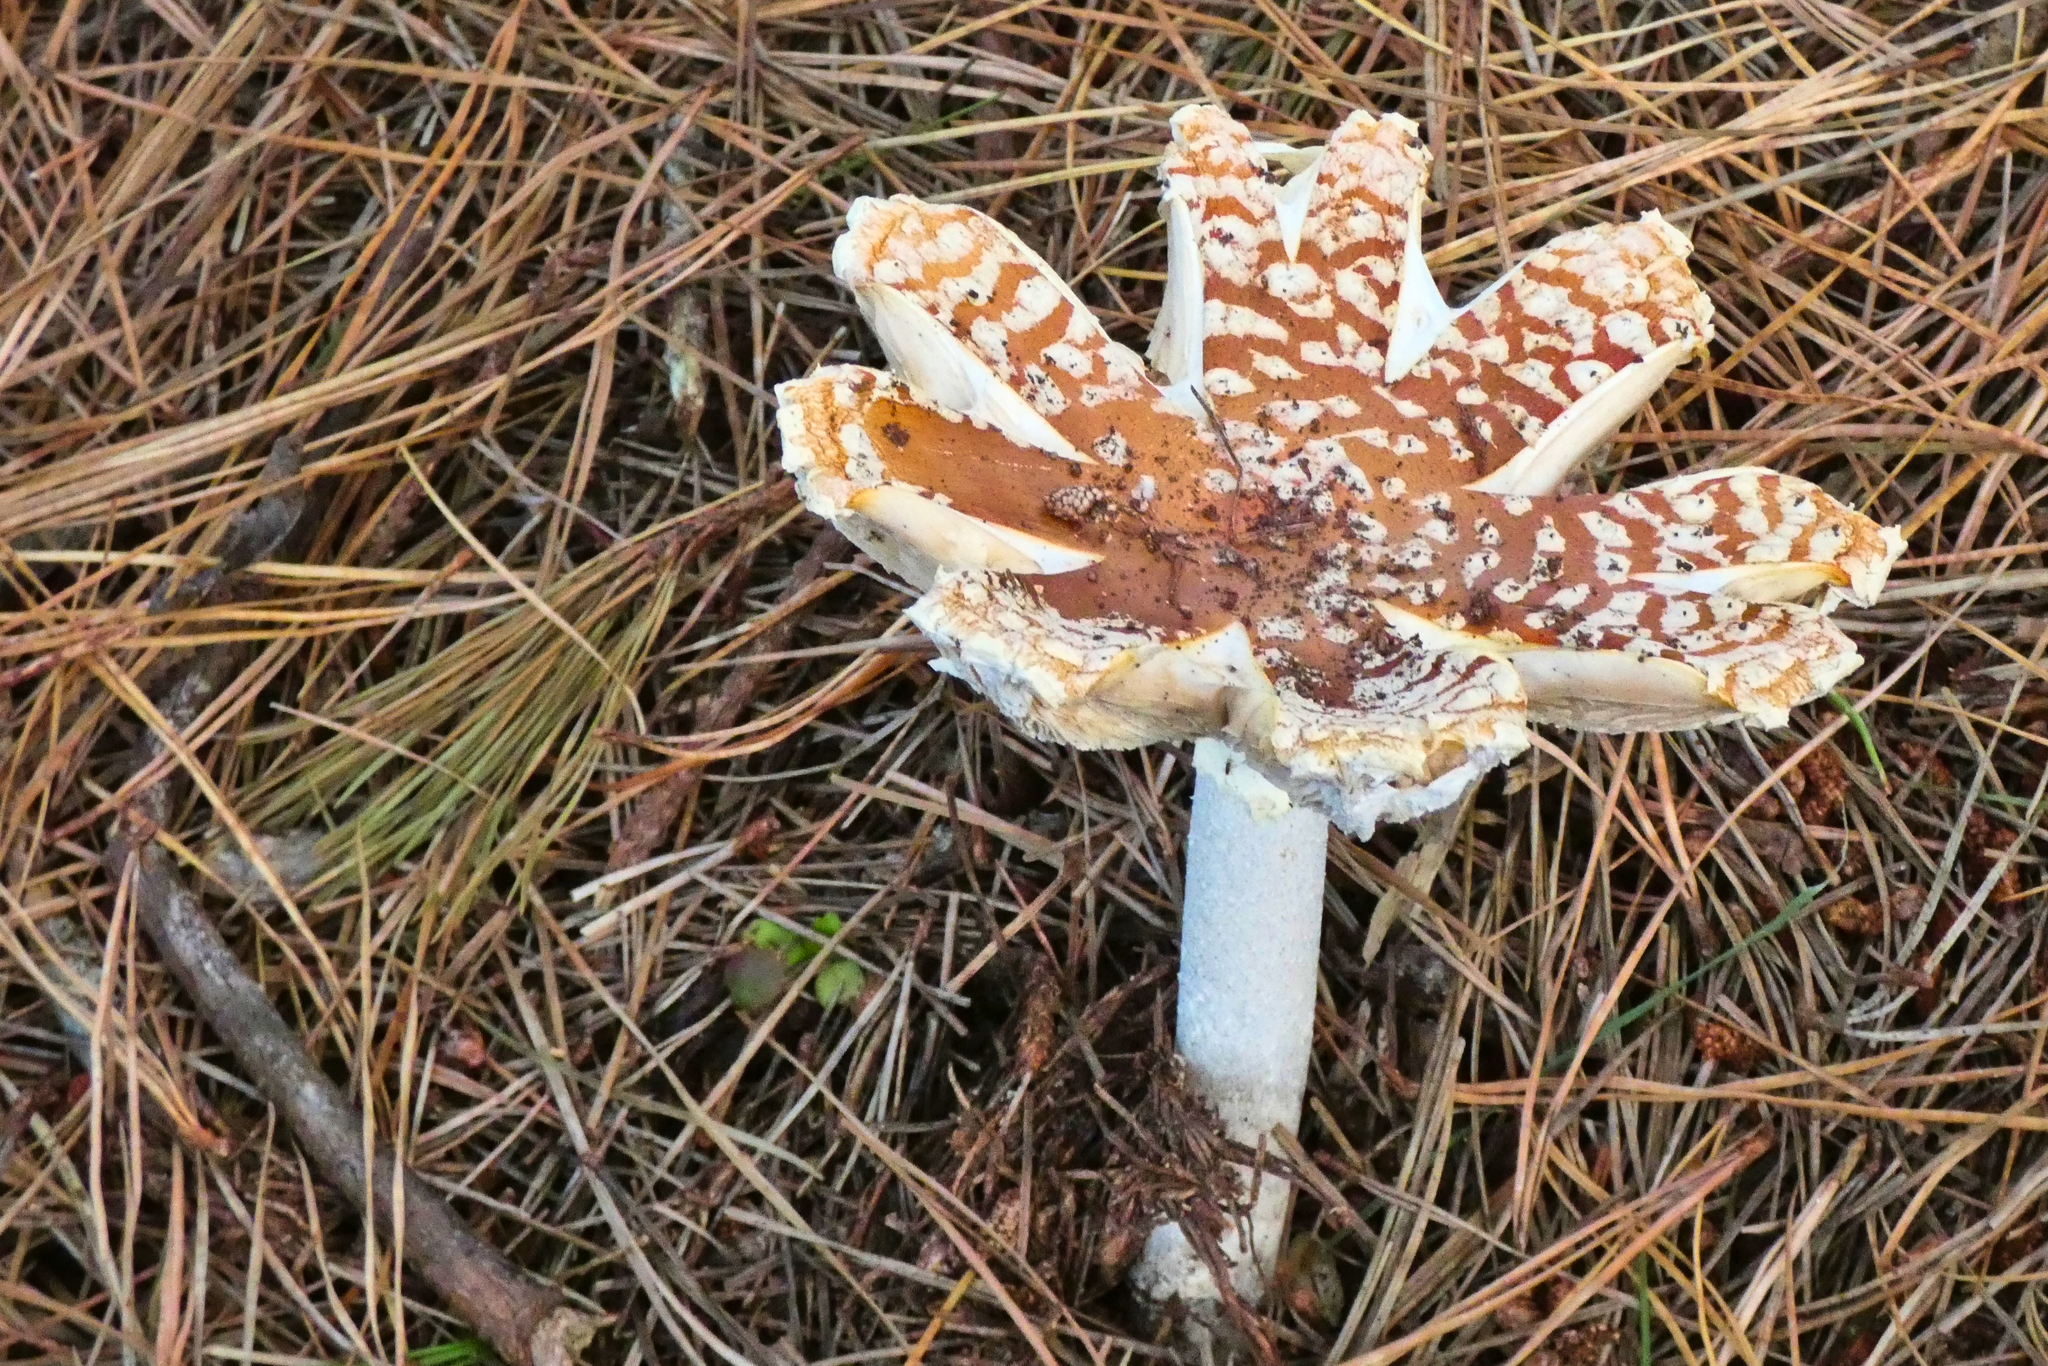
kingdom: Fungi
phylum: Basidiomycota
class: Agaricomycetes
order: Agaricales
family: Amanitaceae
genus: Amanita
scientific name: Amanita muscaria
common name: Fly agaric
